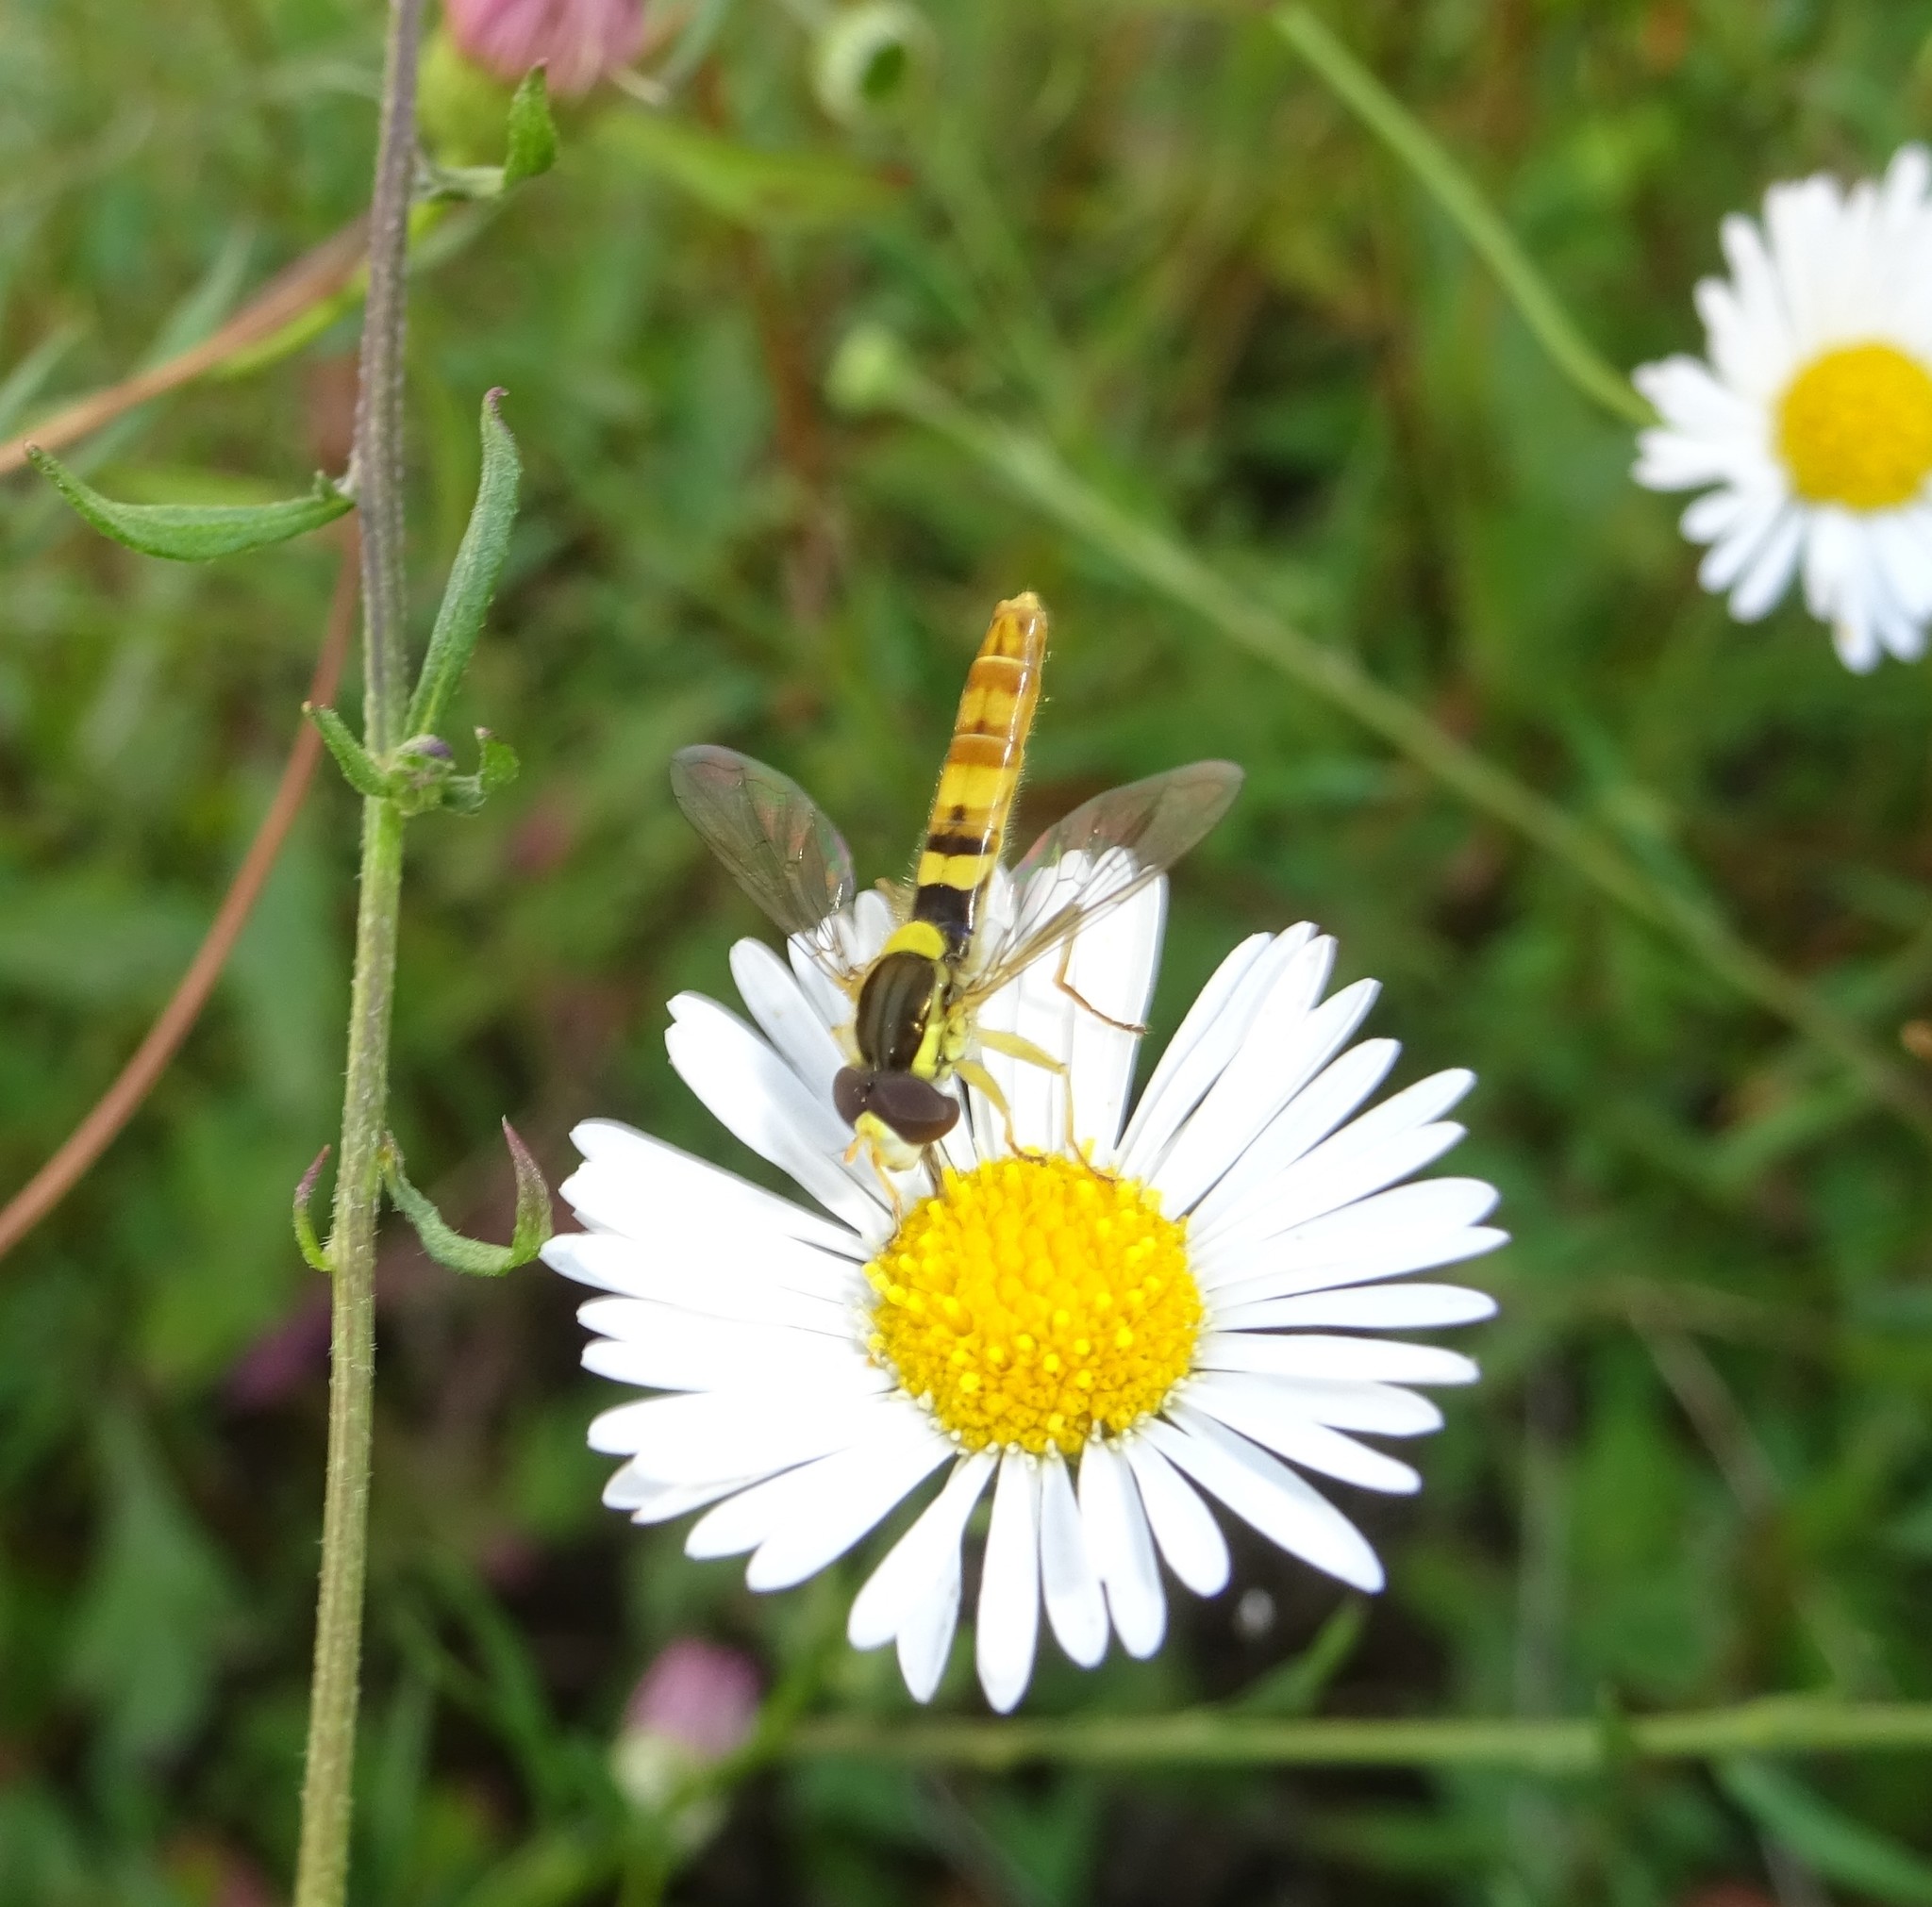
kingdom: Animalia
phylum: Arthropoda
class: Insecta
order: Diptera
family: Syrphidae
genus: Sphaerophoria
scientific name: Sphaerophoria scripta
